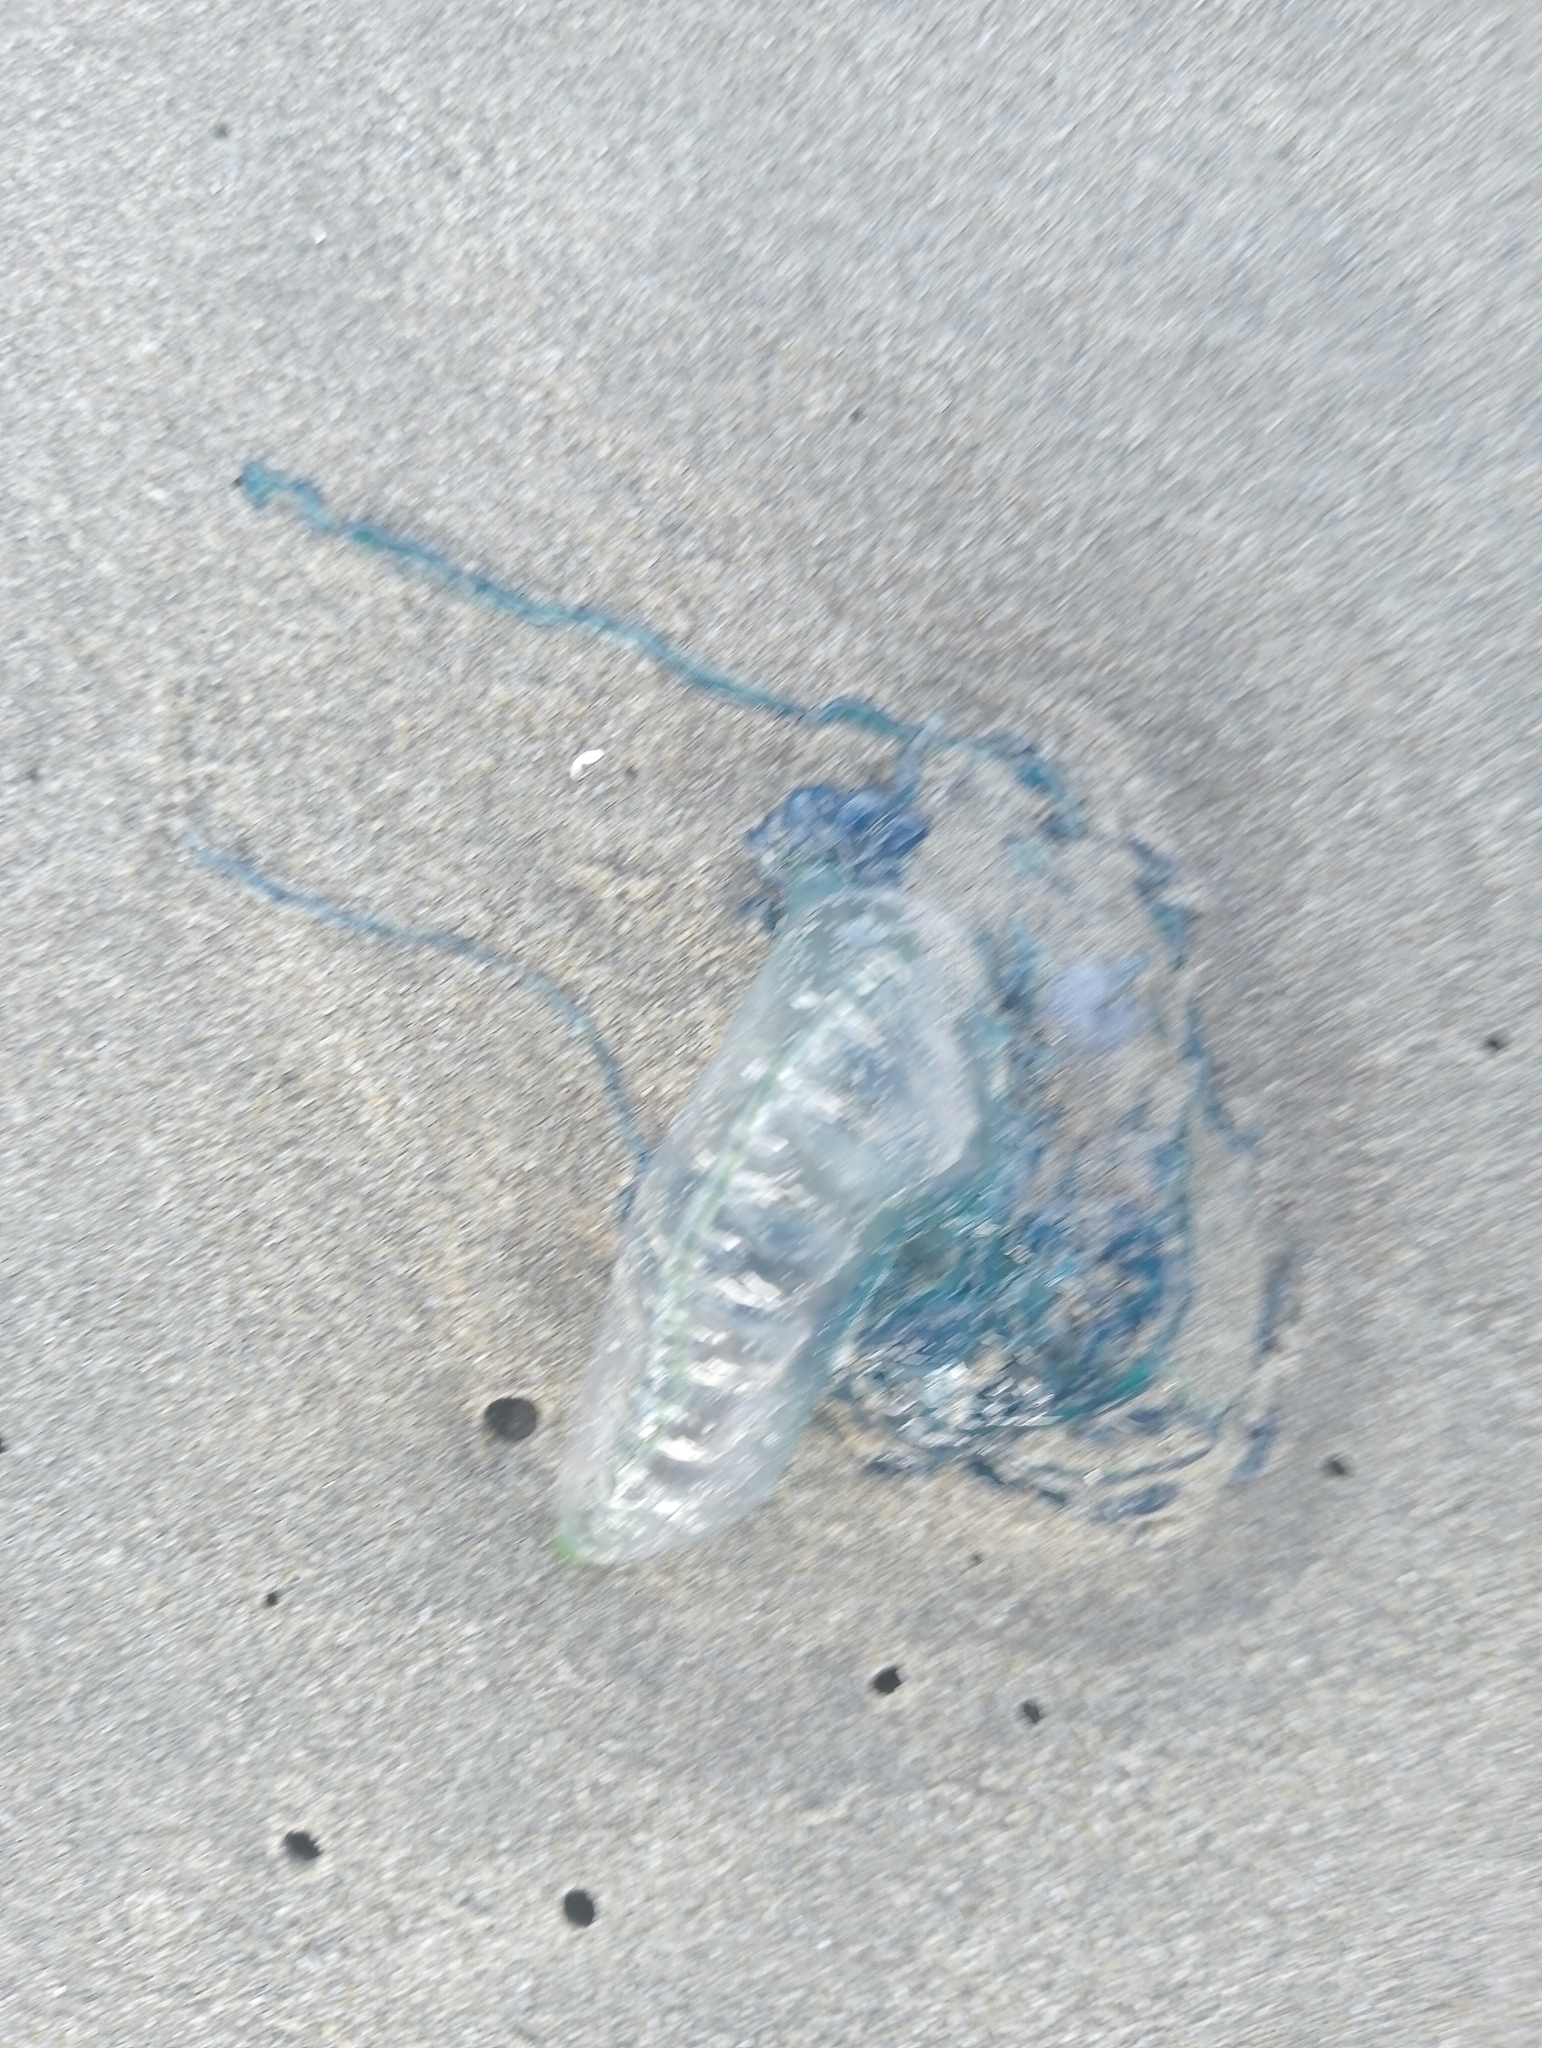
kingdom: Animalia
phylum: Cnidaria
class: Hydrozoa
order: Siphonophorae
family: Physaliidae
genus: Physalia
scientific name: Physalia physalis
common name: Portuguese man-of-war
